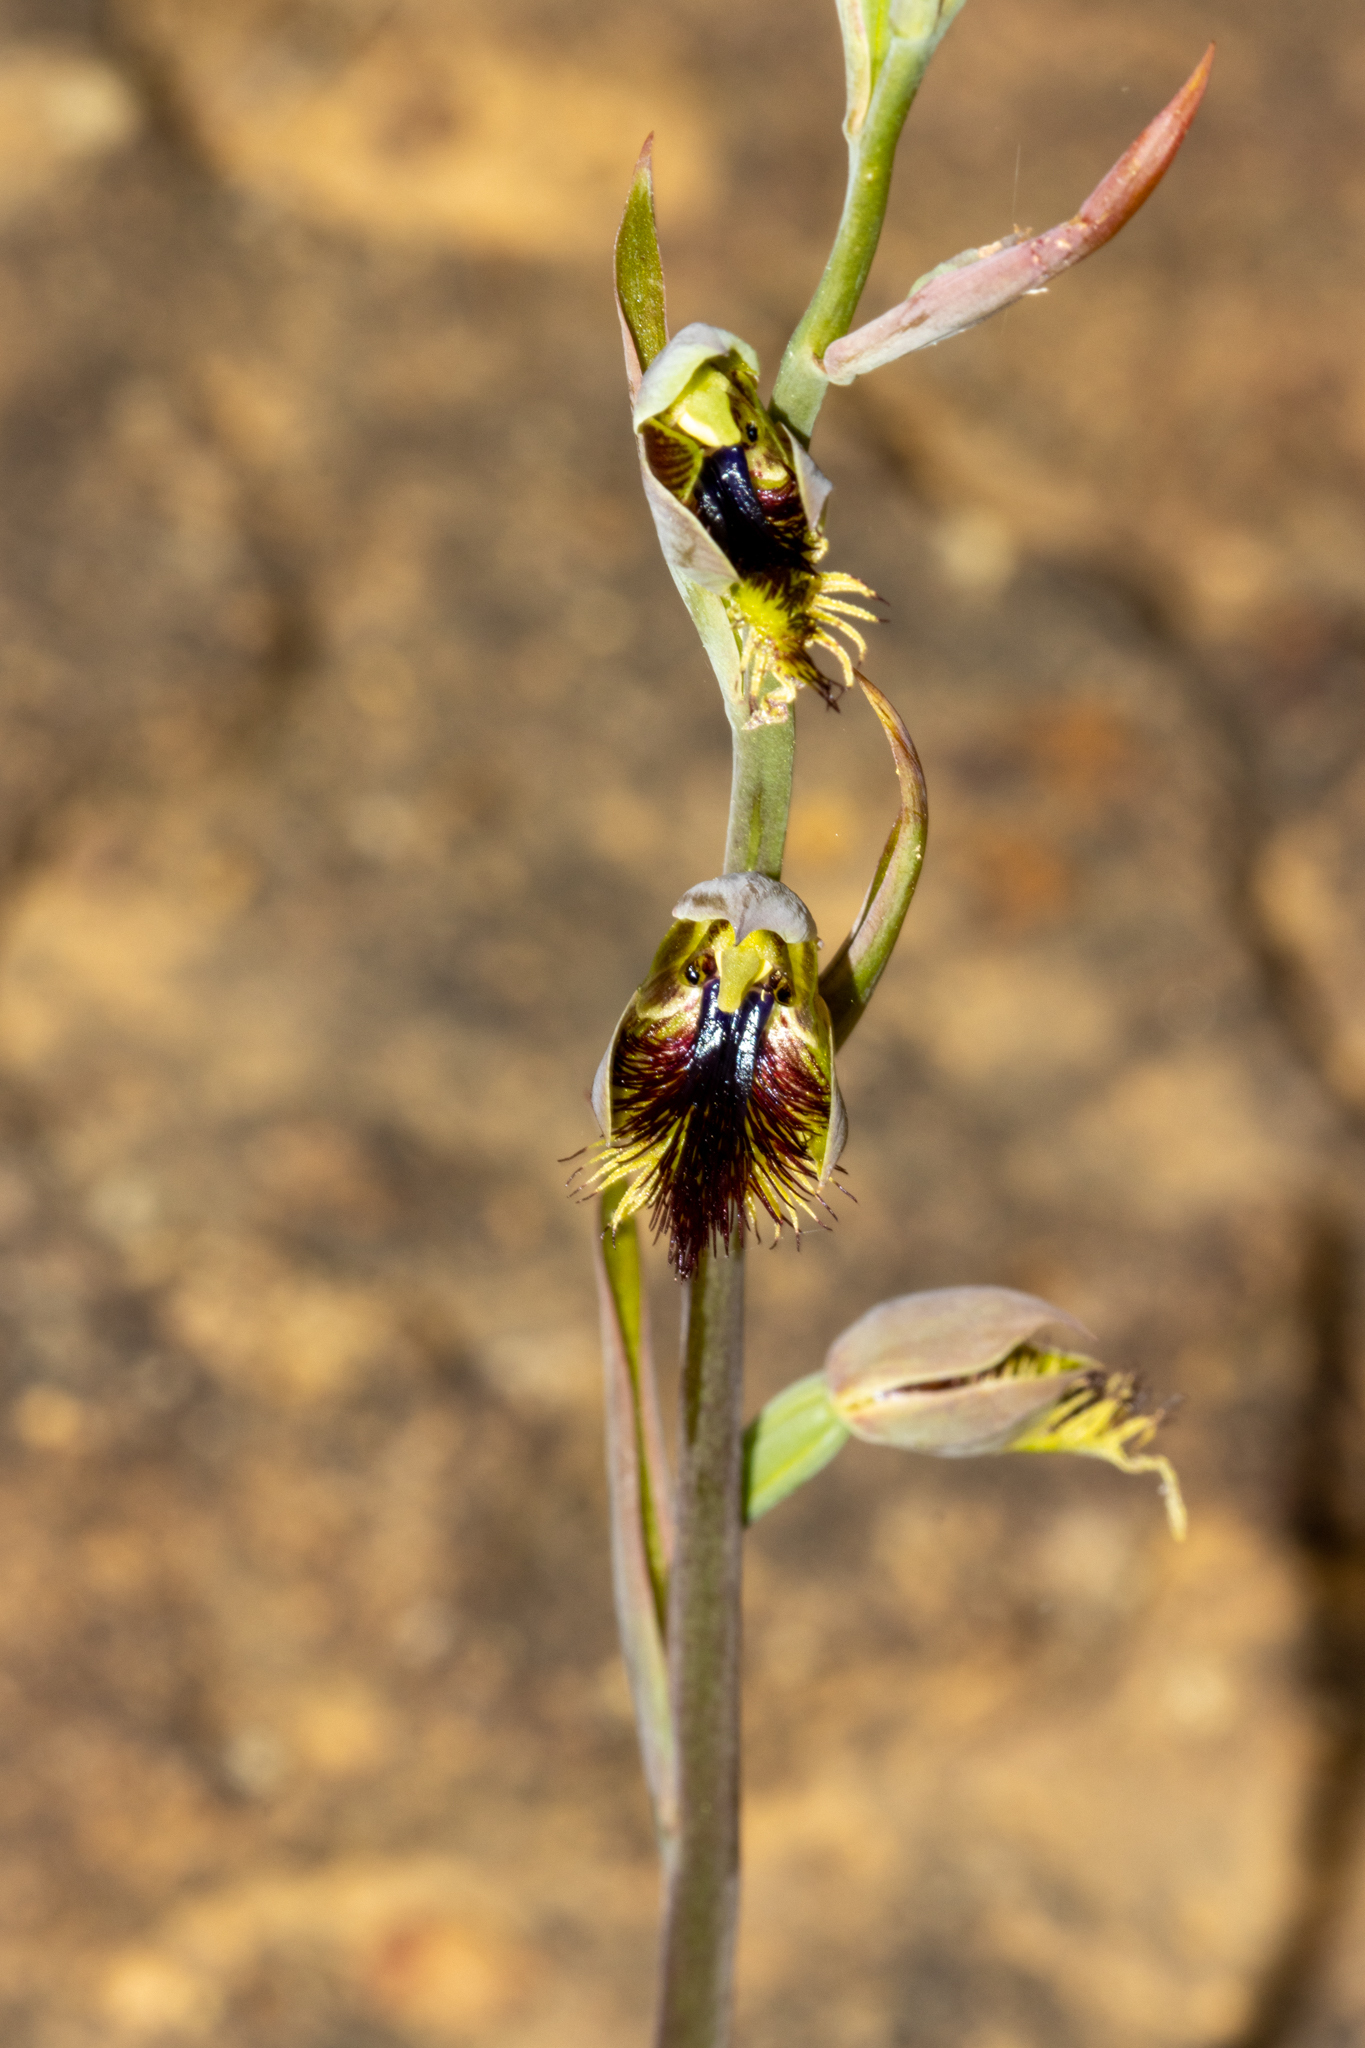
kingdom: Plantae
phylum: Tracheophyta
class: Liliopsida
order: Asparagales
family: Orchidaceae
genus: Calochilus
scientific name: Calochilus campestris
